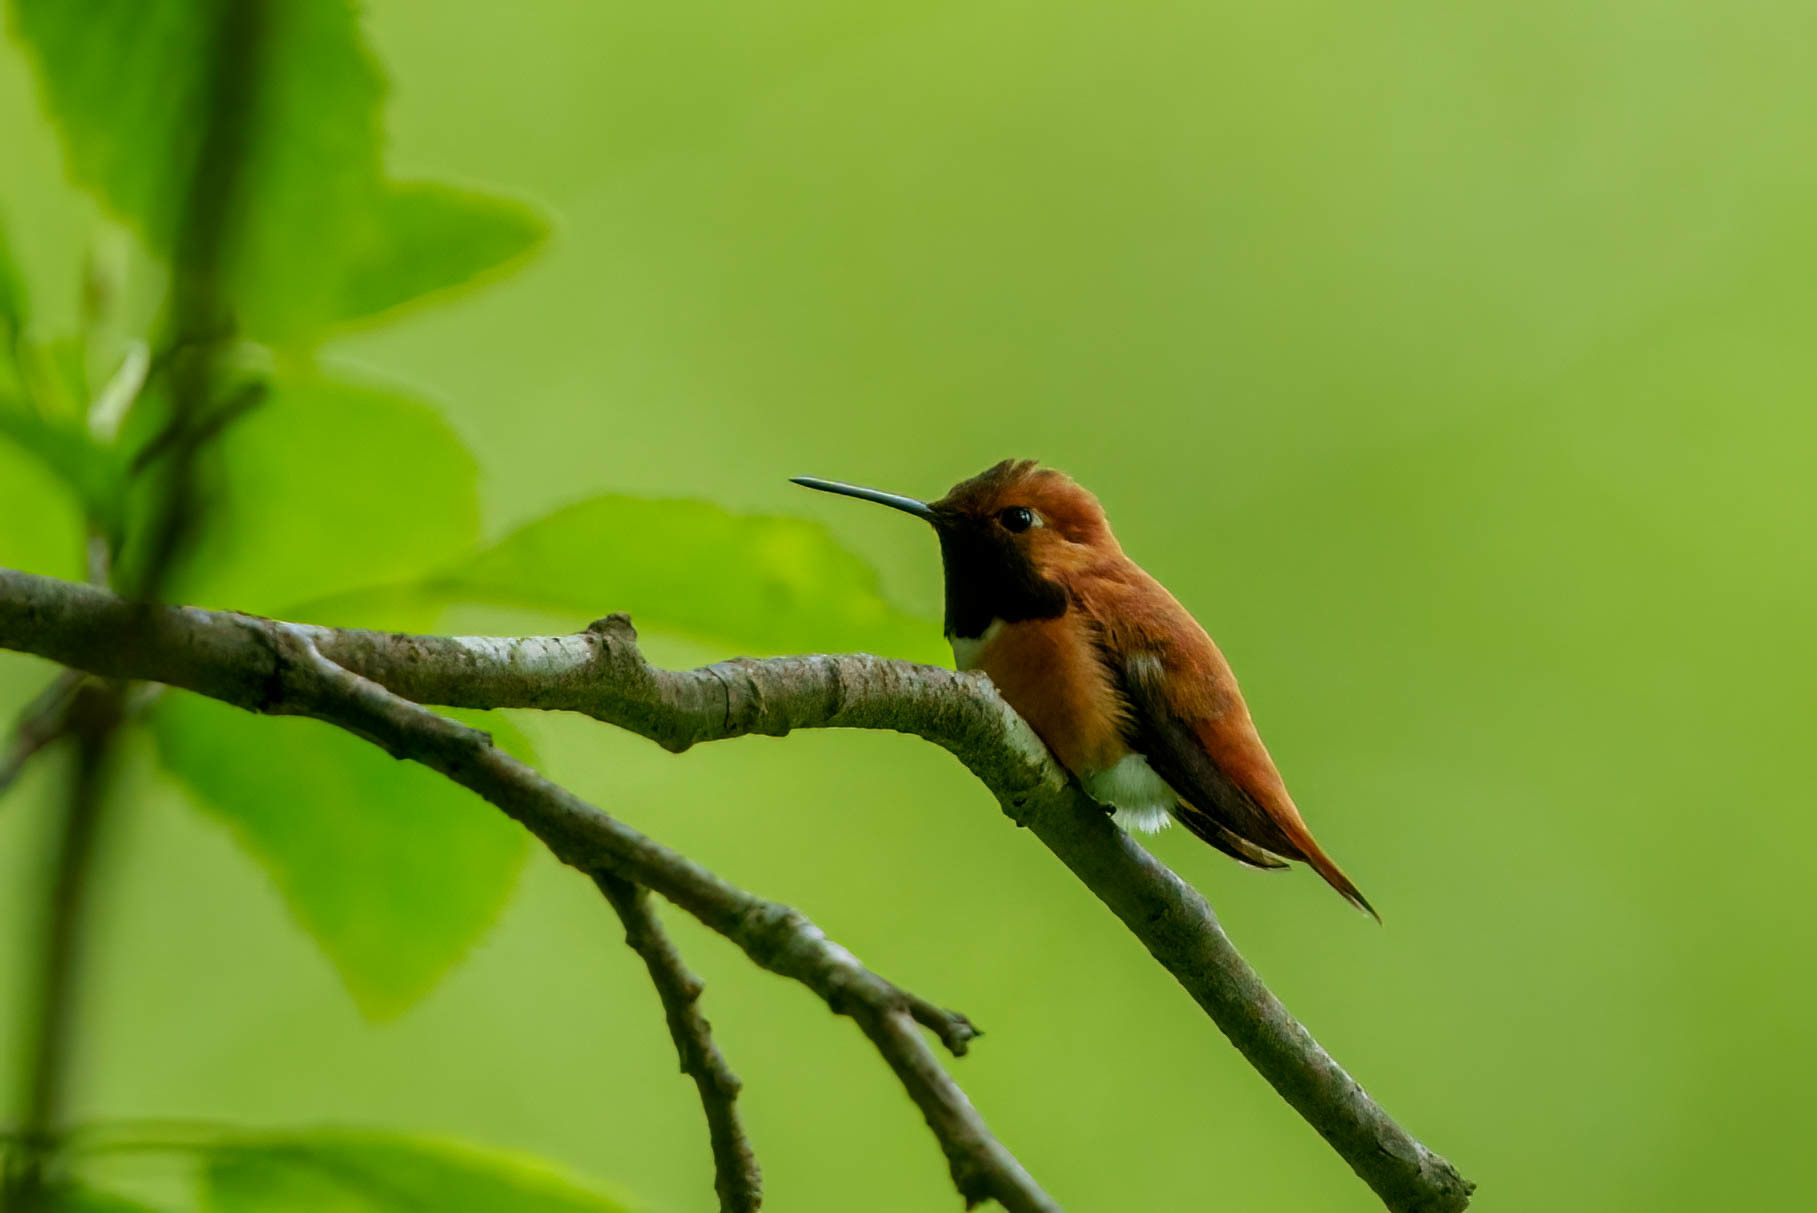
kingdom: Animalia
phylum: Chordata
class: Aves
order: Apodiformes
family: Trochilidae
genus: Selasphorus
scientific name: Selasphorus rufus
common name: Rufous hummingbird
